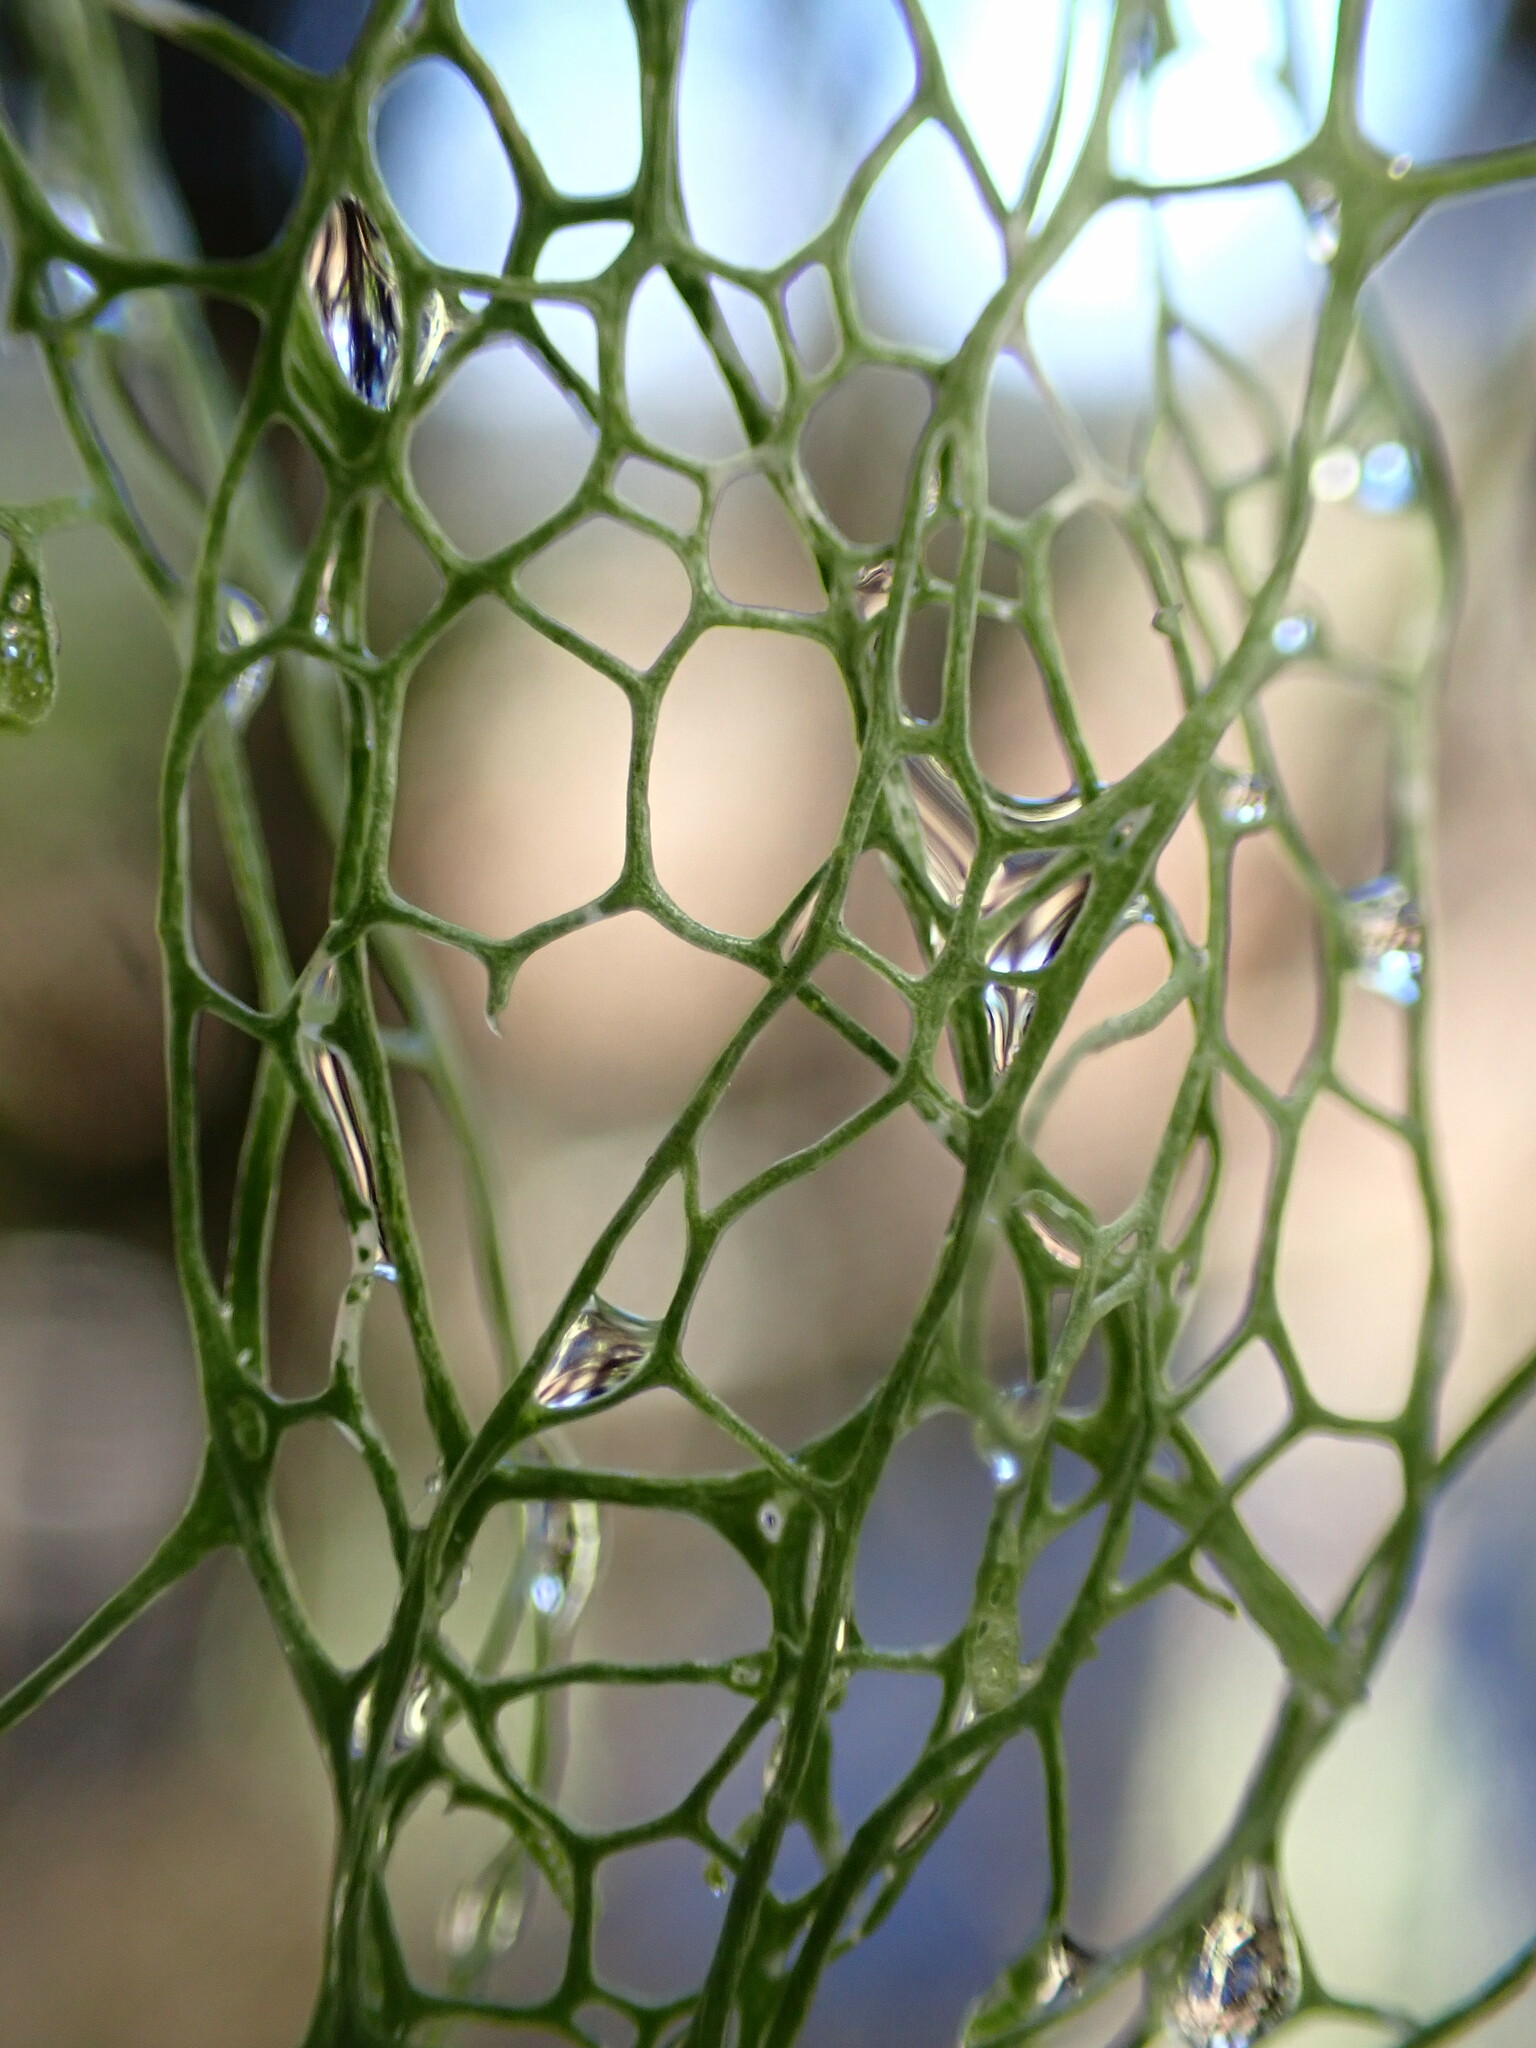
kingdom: Fungi
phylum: Ascomycota
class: Lecanoromycetes
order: Lecanorales
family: Ramalinaceae
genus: Ramalina
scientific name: Ramalina menziesii
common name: Lace lichen
